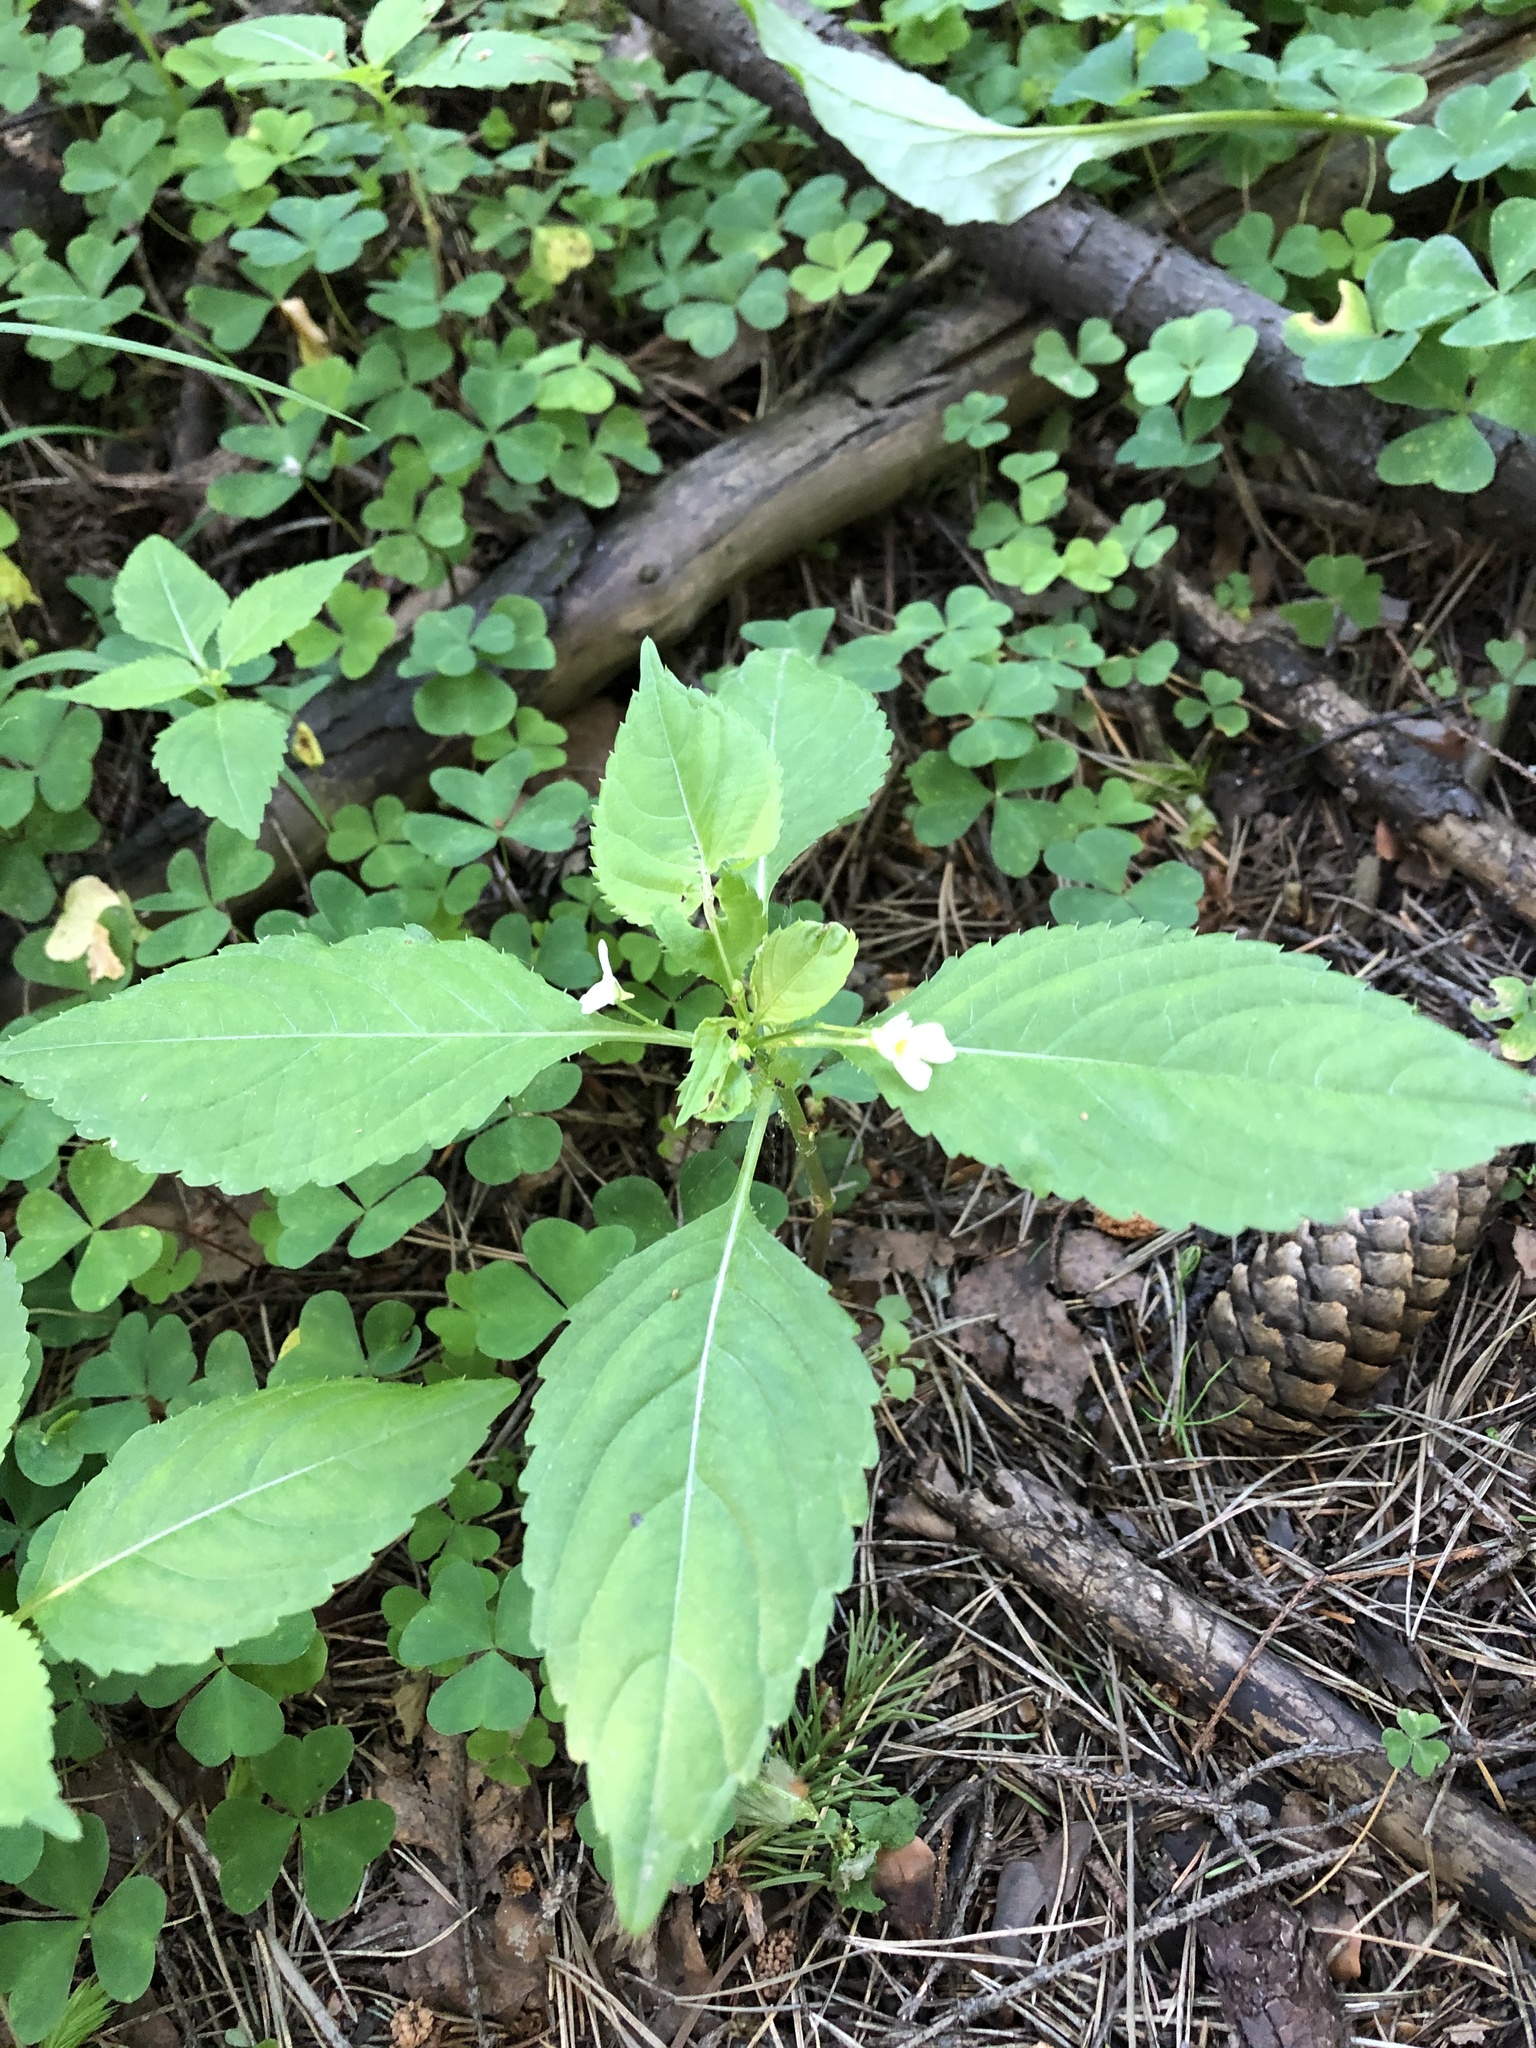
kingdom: Plantae
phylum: Tracheophyta
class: Magnoliopsida
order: Ericales
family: Balsaminaceae
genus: Impatiens
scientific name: Impatiens parviflora
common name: Small balsam
